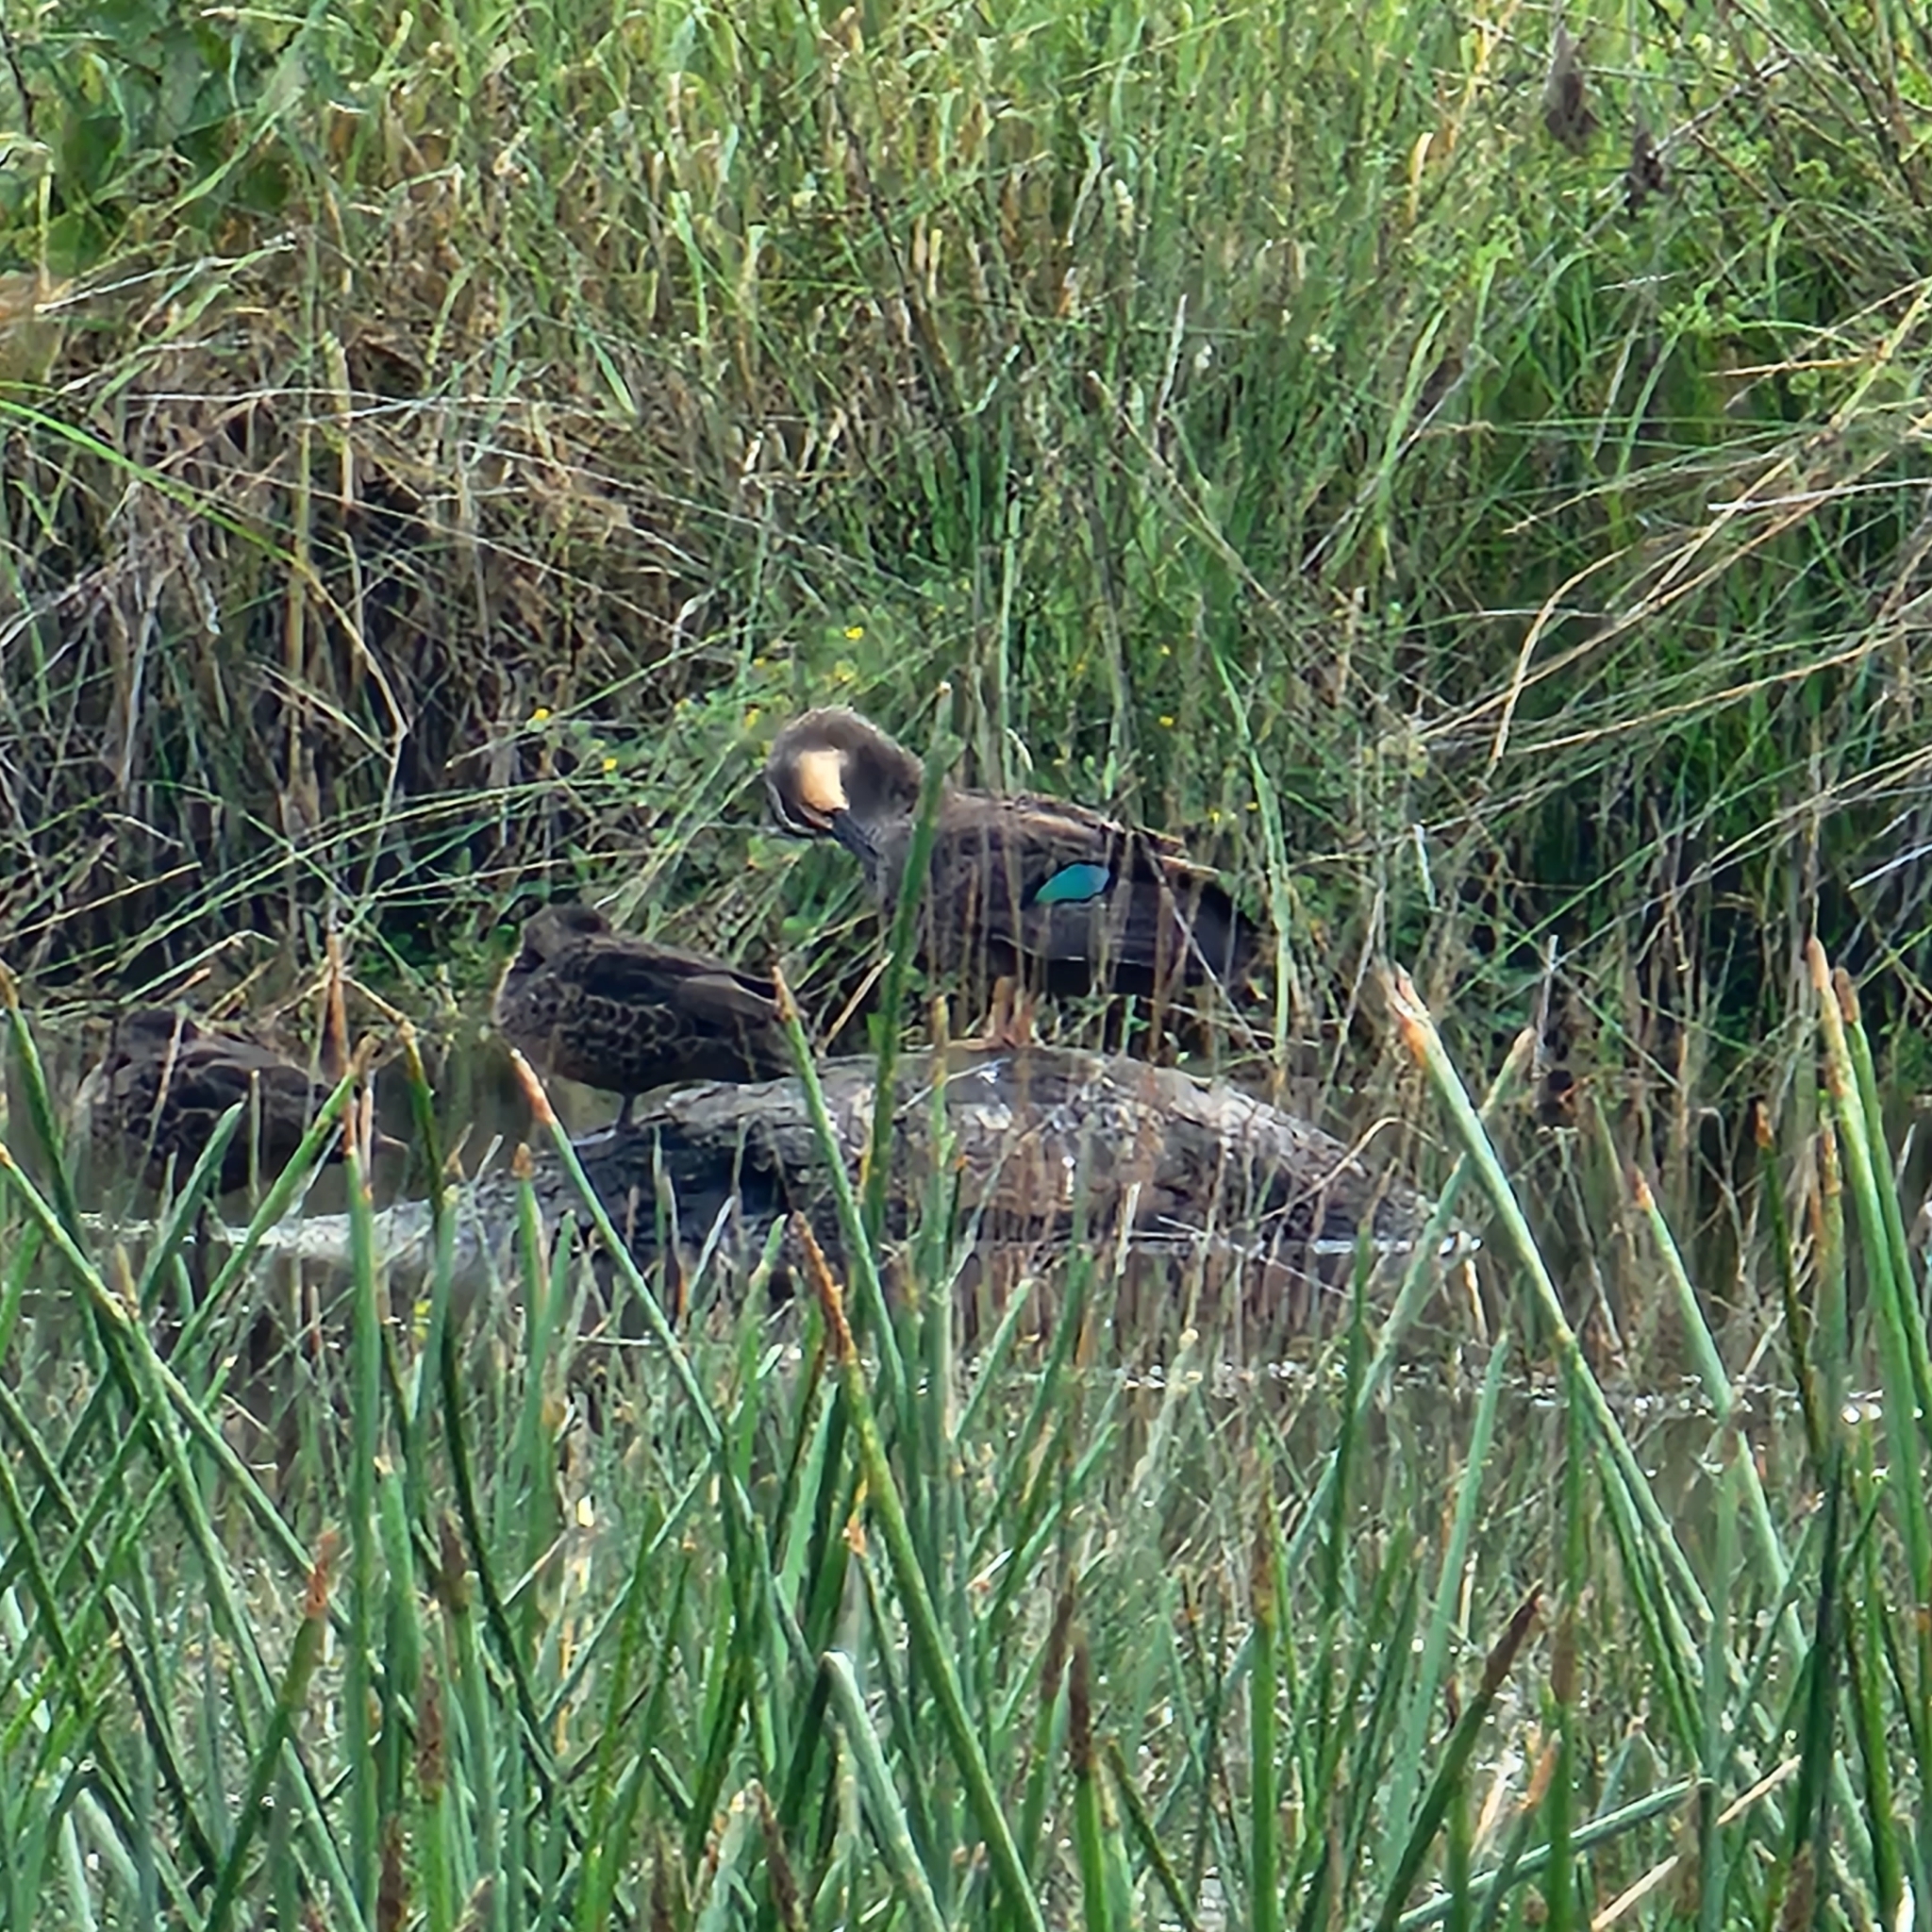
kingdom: Animalia
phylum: Chordata
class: Aves
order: Anseriformes
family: Anatidae
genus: Anas
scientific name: Anas superciliosa
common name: Pacific black duck
